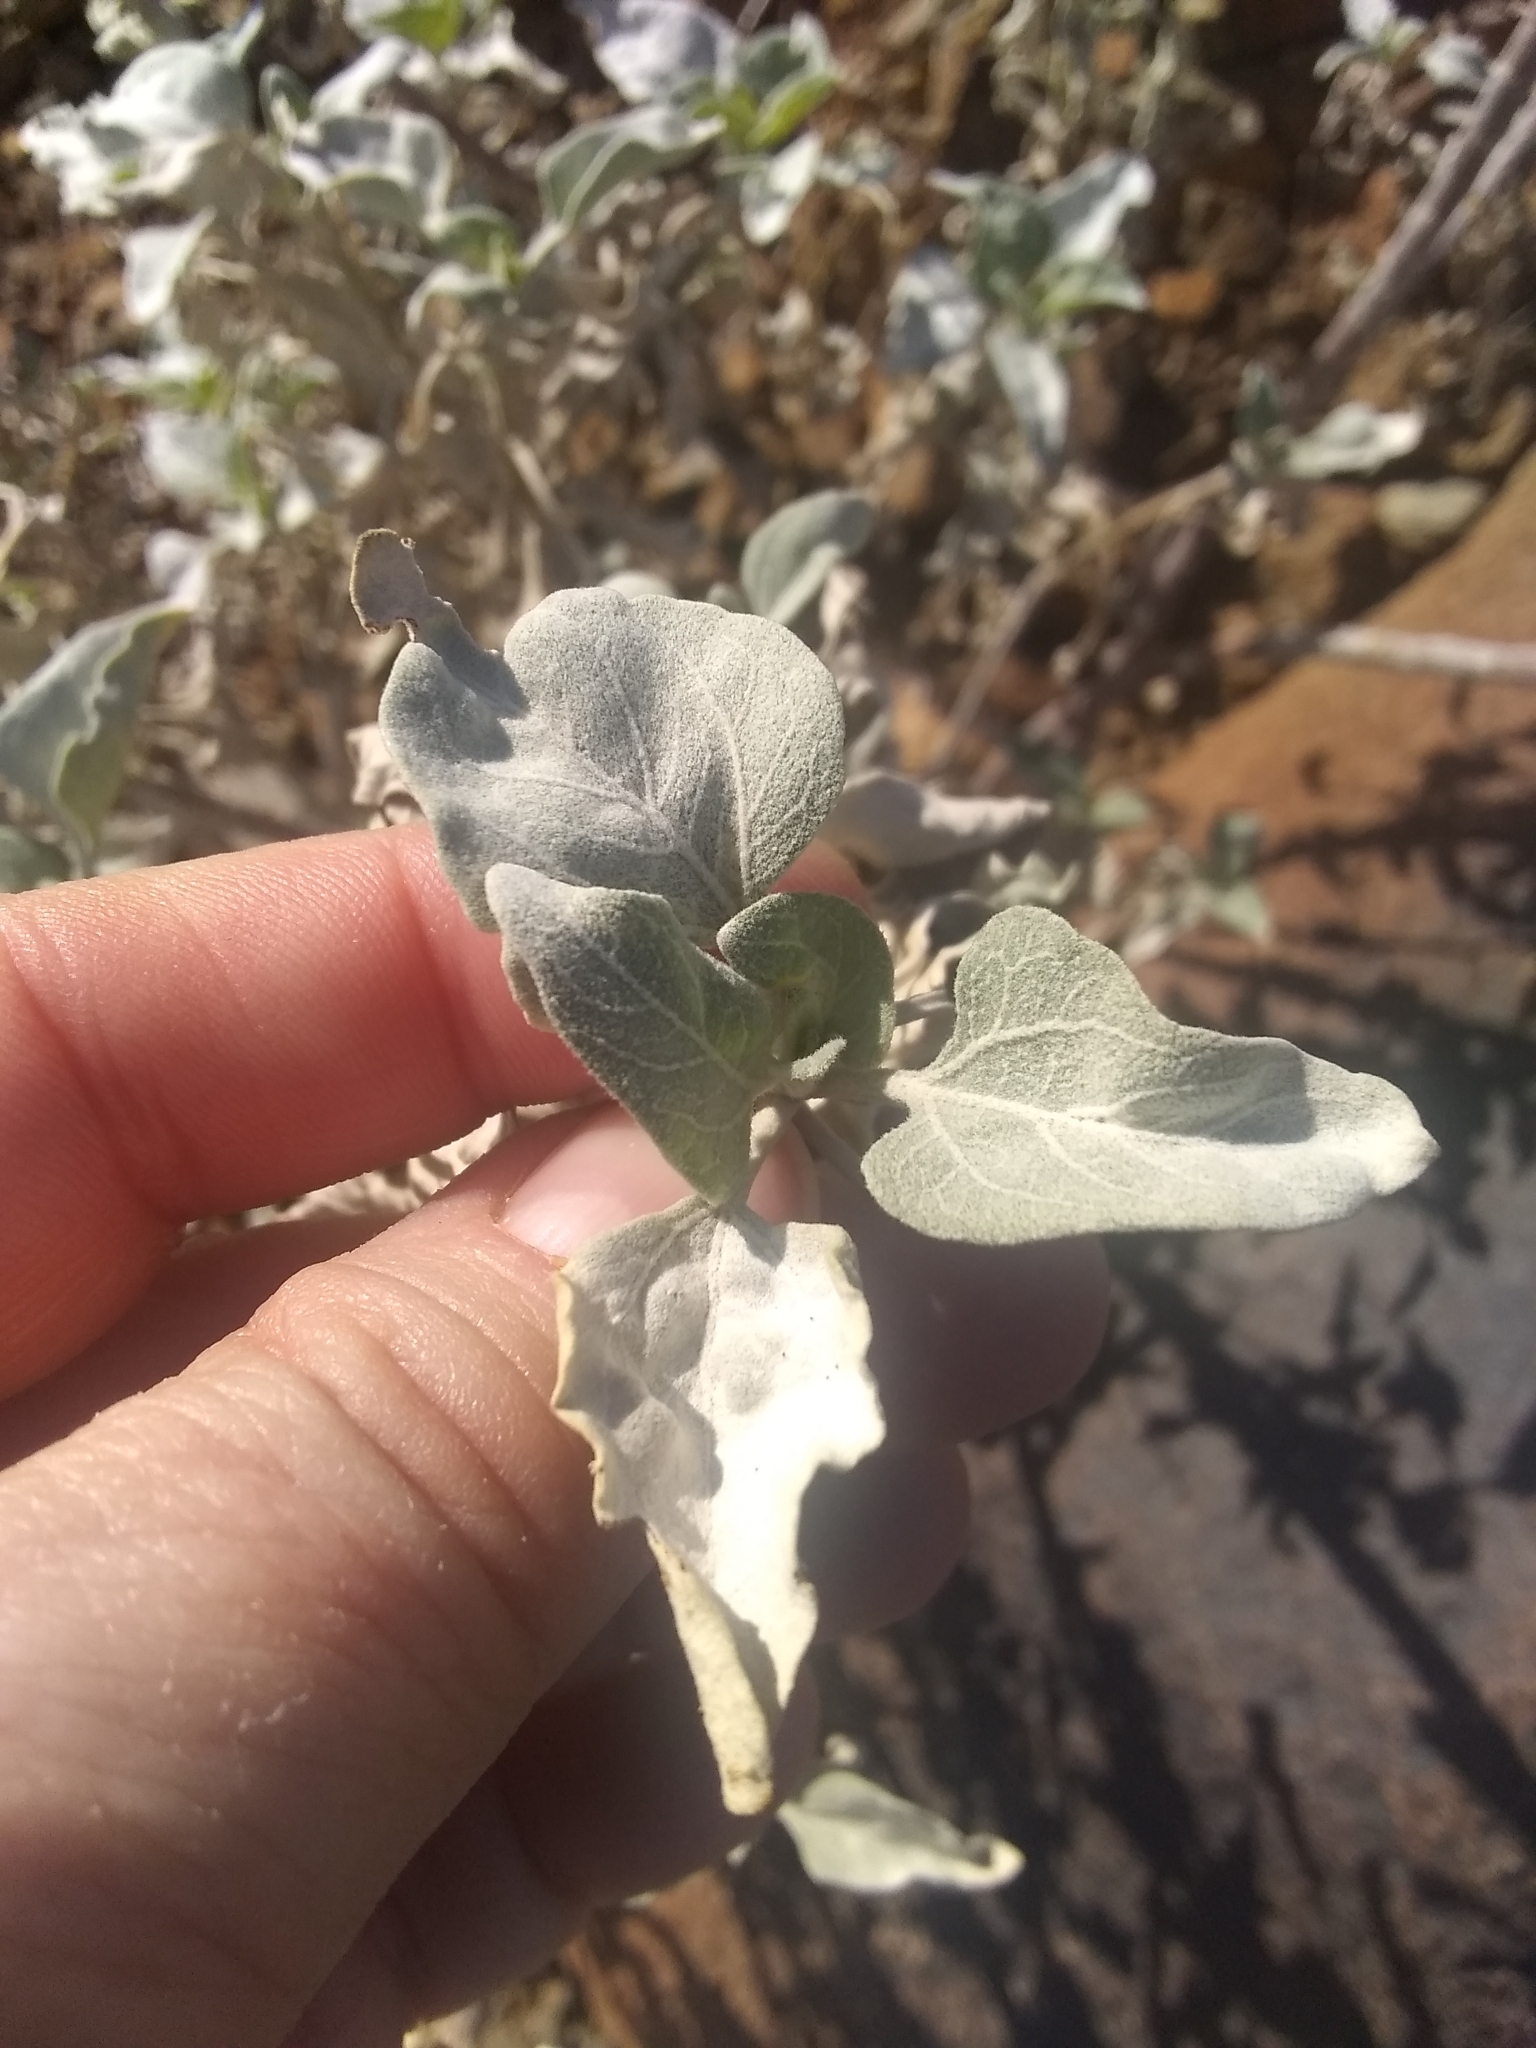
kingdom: Plantae
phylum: Tracheophyta
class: Magnoliopsida
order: Asterales
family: Asteraceae
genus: Encelia
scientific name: Encelia farinosa
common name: Brittlebush
